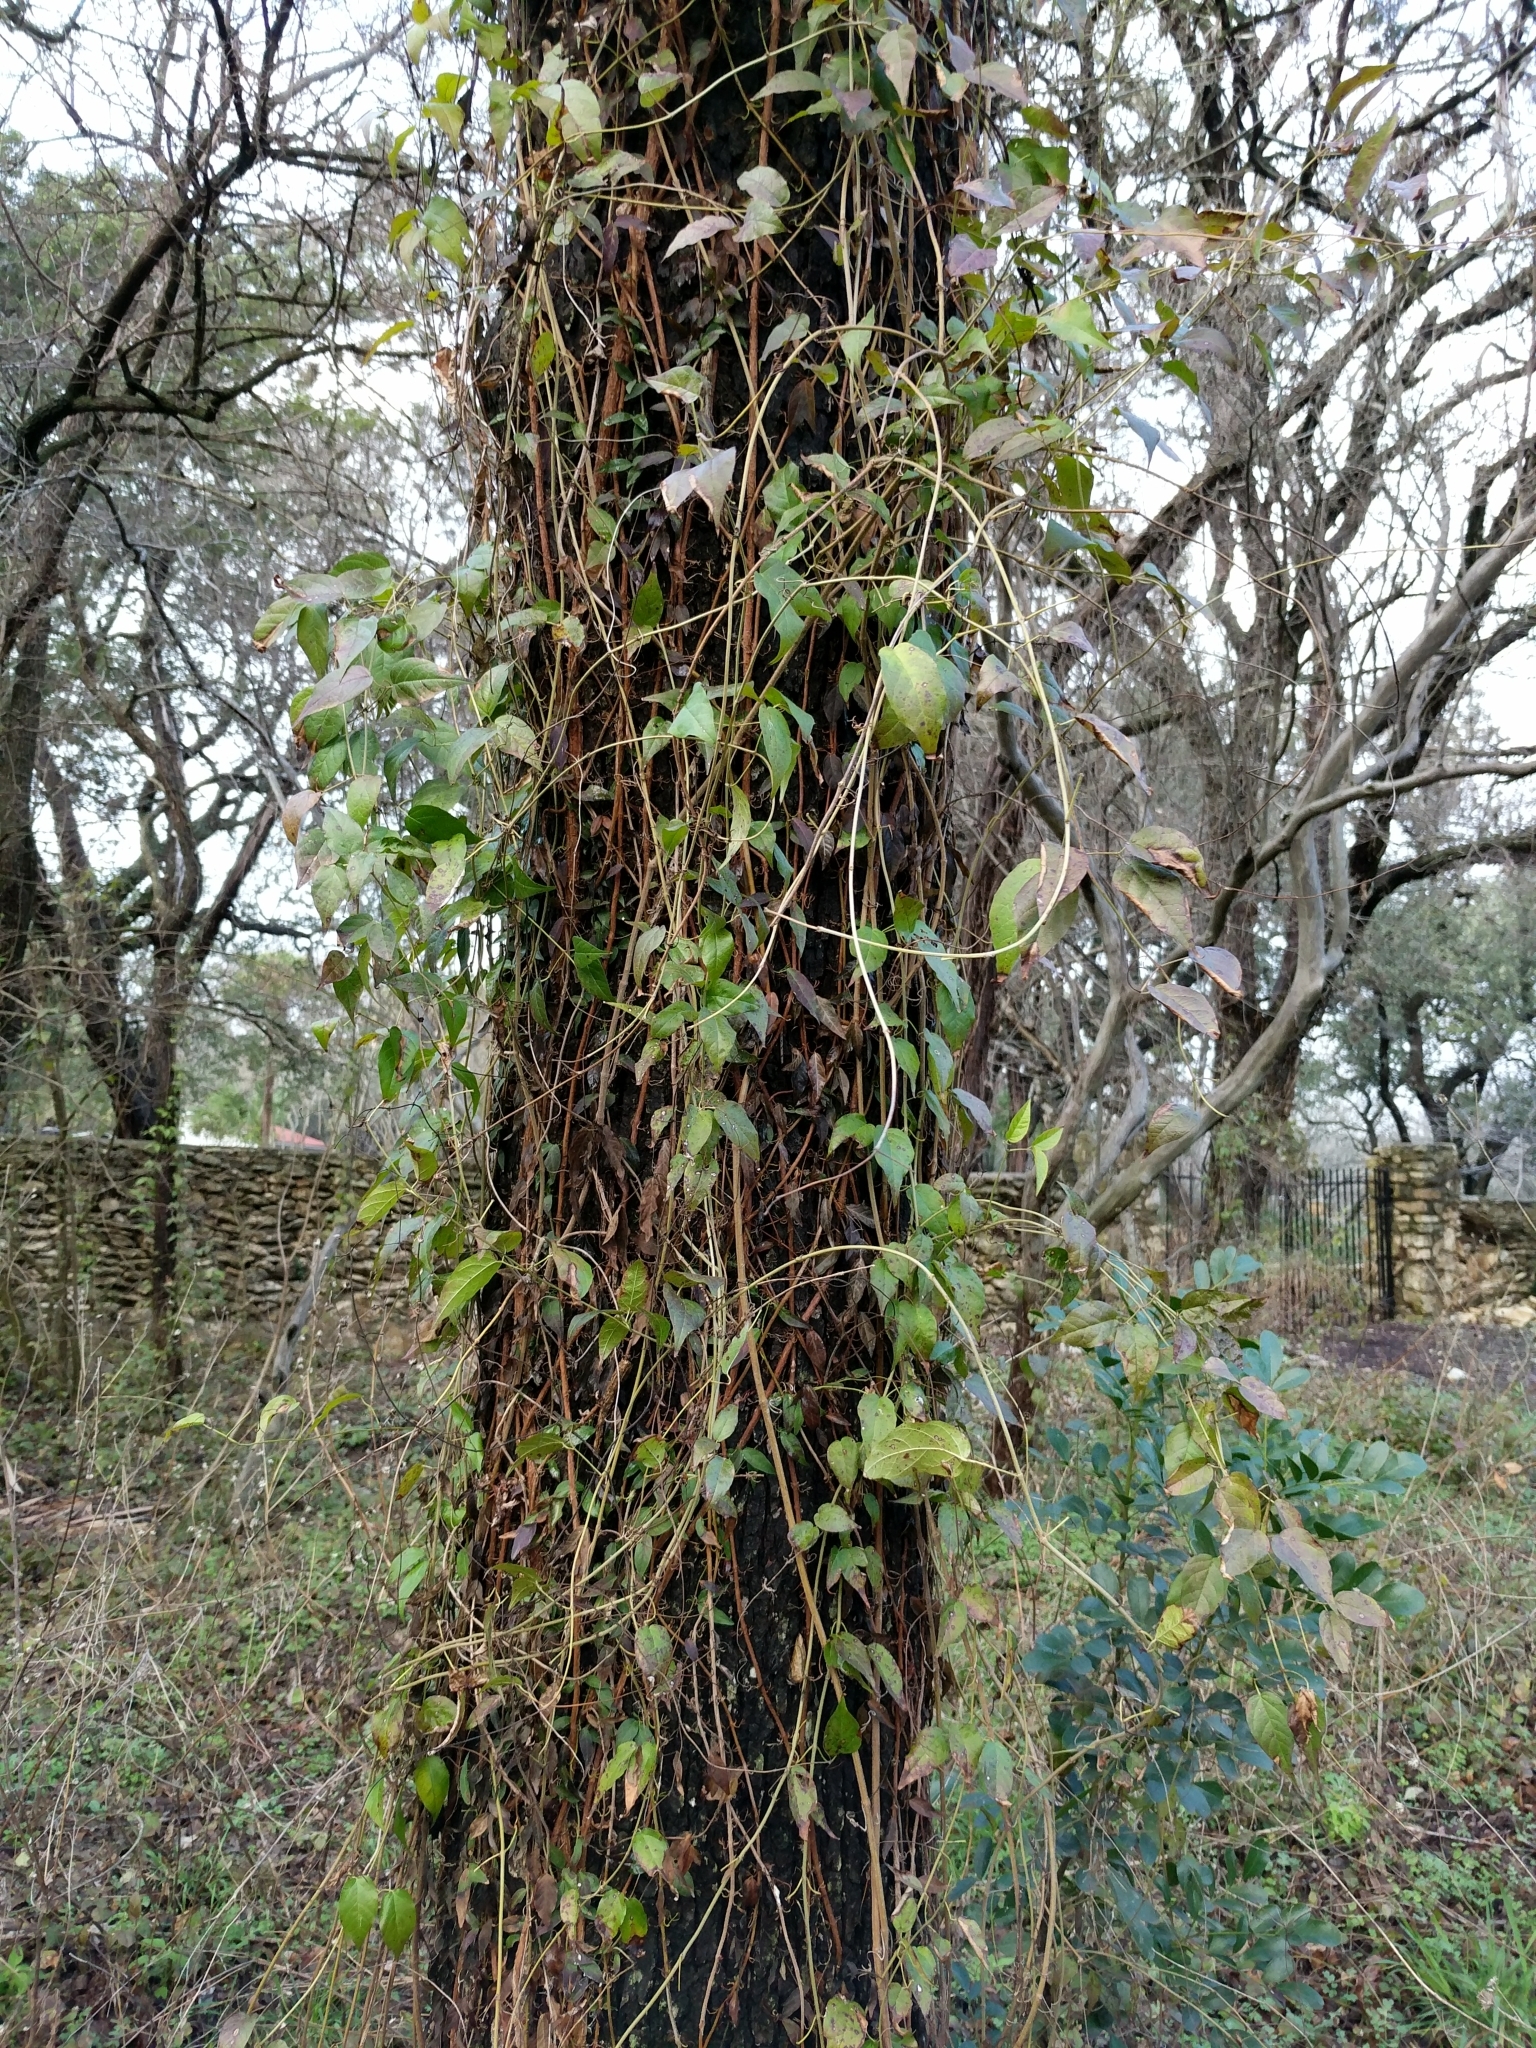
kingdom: Plantae
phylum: Tracheophyta
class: Magnoliopsida
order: Lamiales
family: Bignoniaceae
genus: Dolichandra
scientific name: Dolichandra unguis-cati
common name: Catclaw vine
